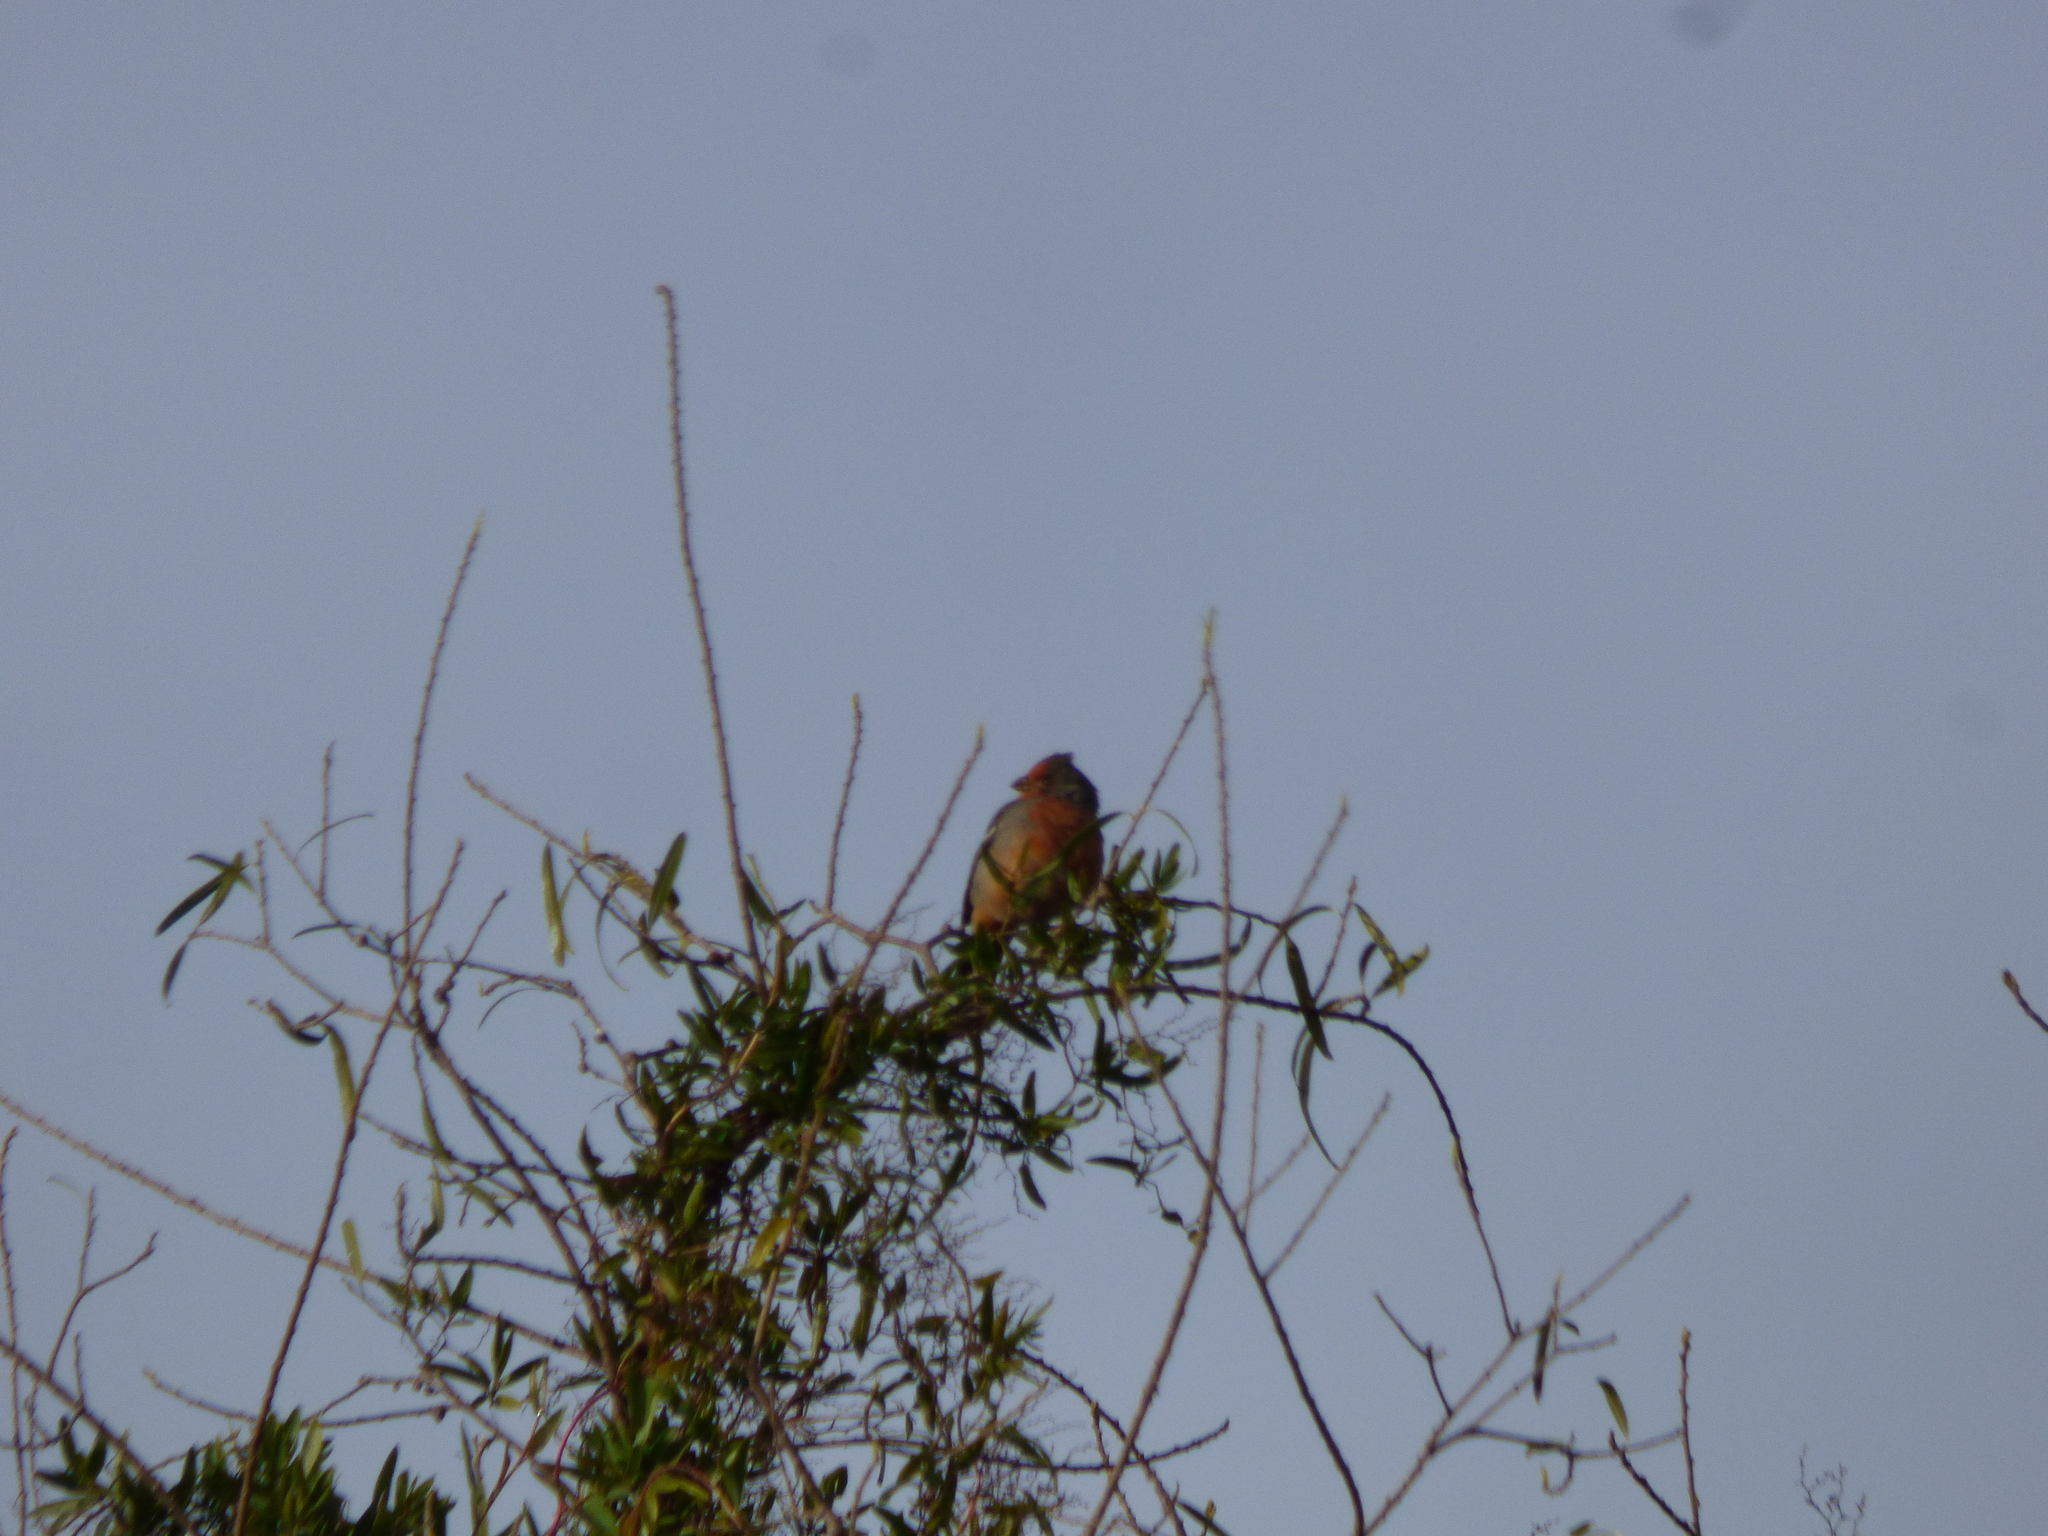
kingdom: Animalia
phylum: Chordata
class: Aves
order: Passeriformes
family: Cotingidae
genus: Phytotoma
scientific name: Phytotoma rutila
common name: White-tipped plantcutter
